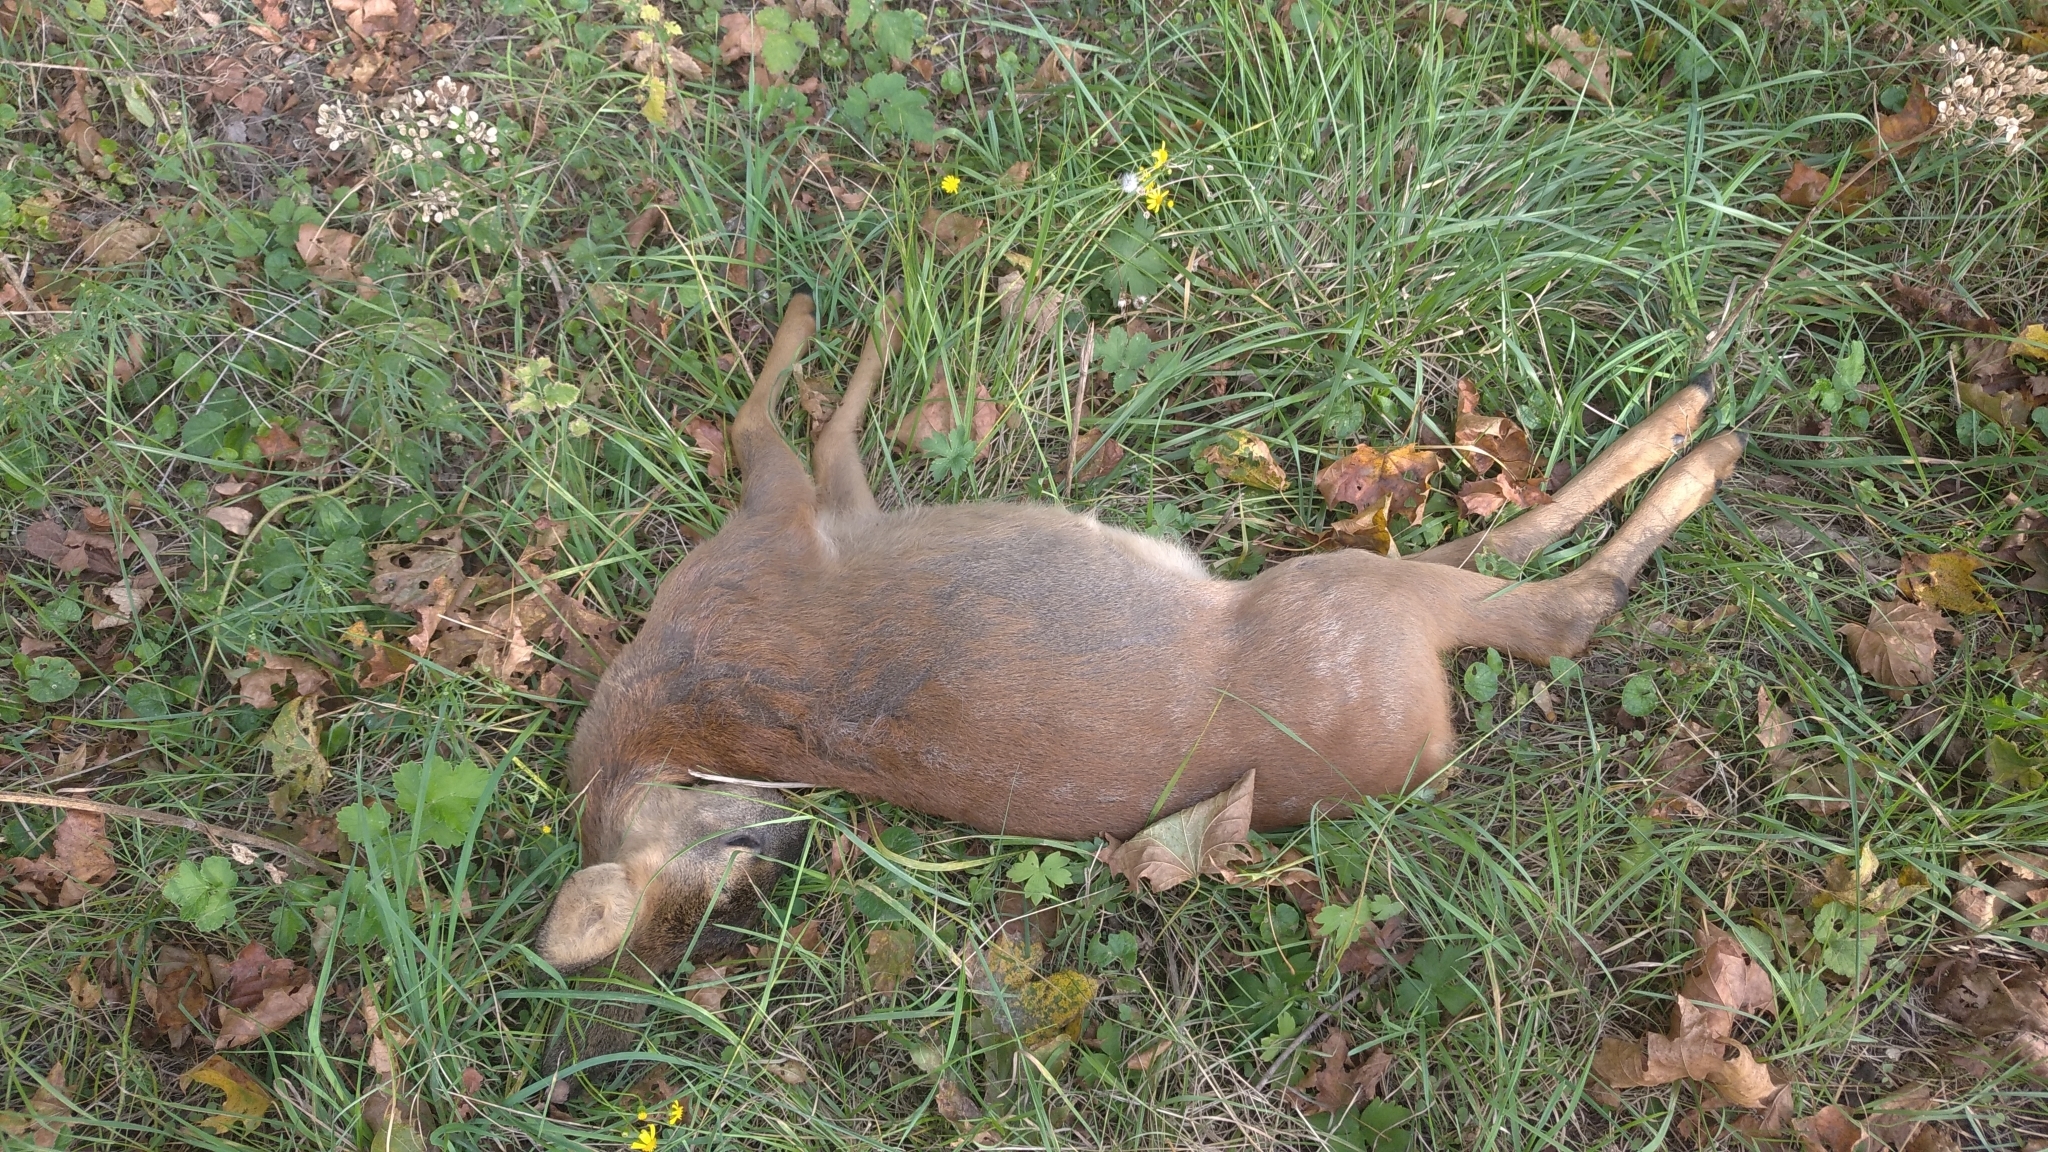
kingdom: Animalia
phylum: Chordata
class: Mammalia
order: Artiodactyla
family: Cervidae
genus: Capreolus
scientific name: Capreolus capreolus
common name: Western roe deer
